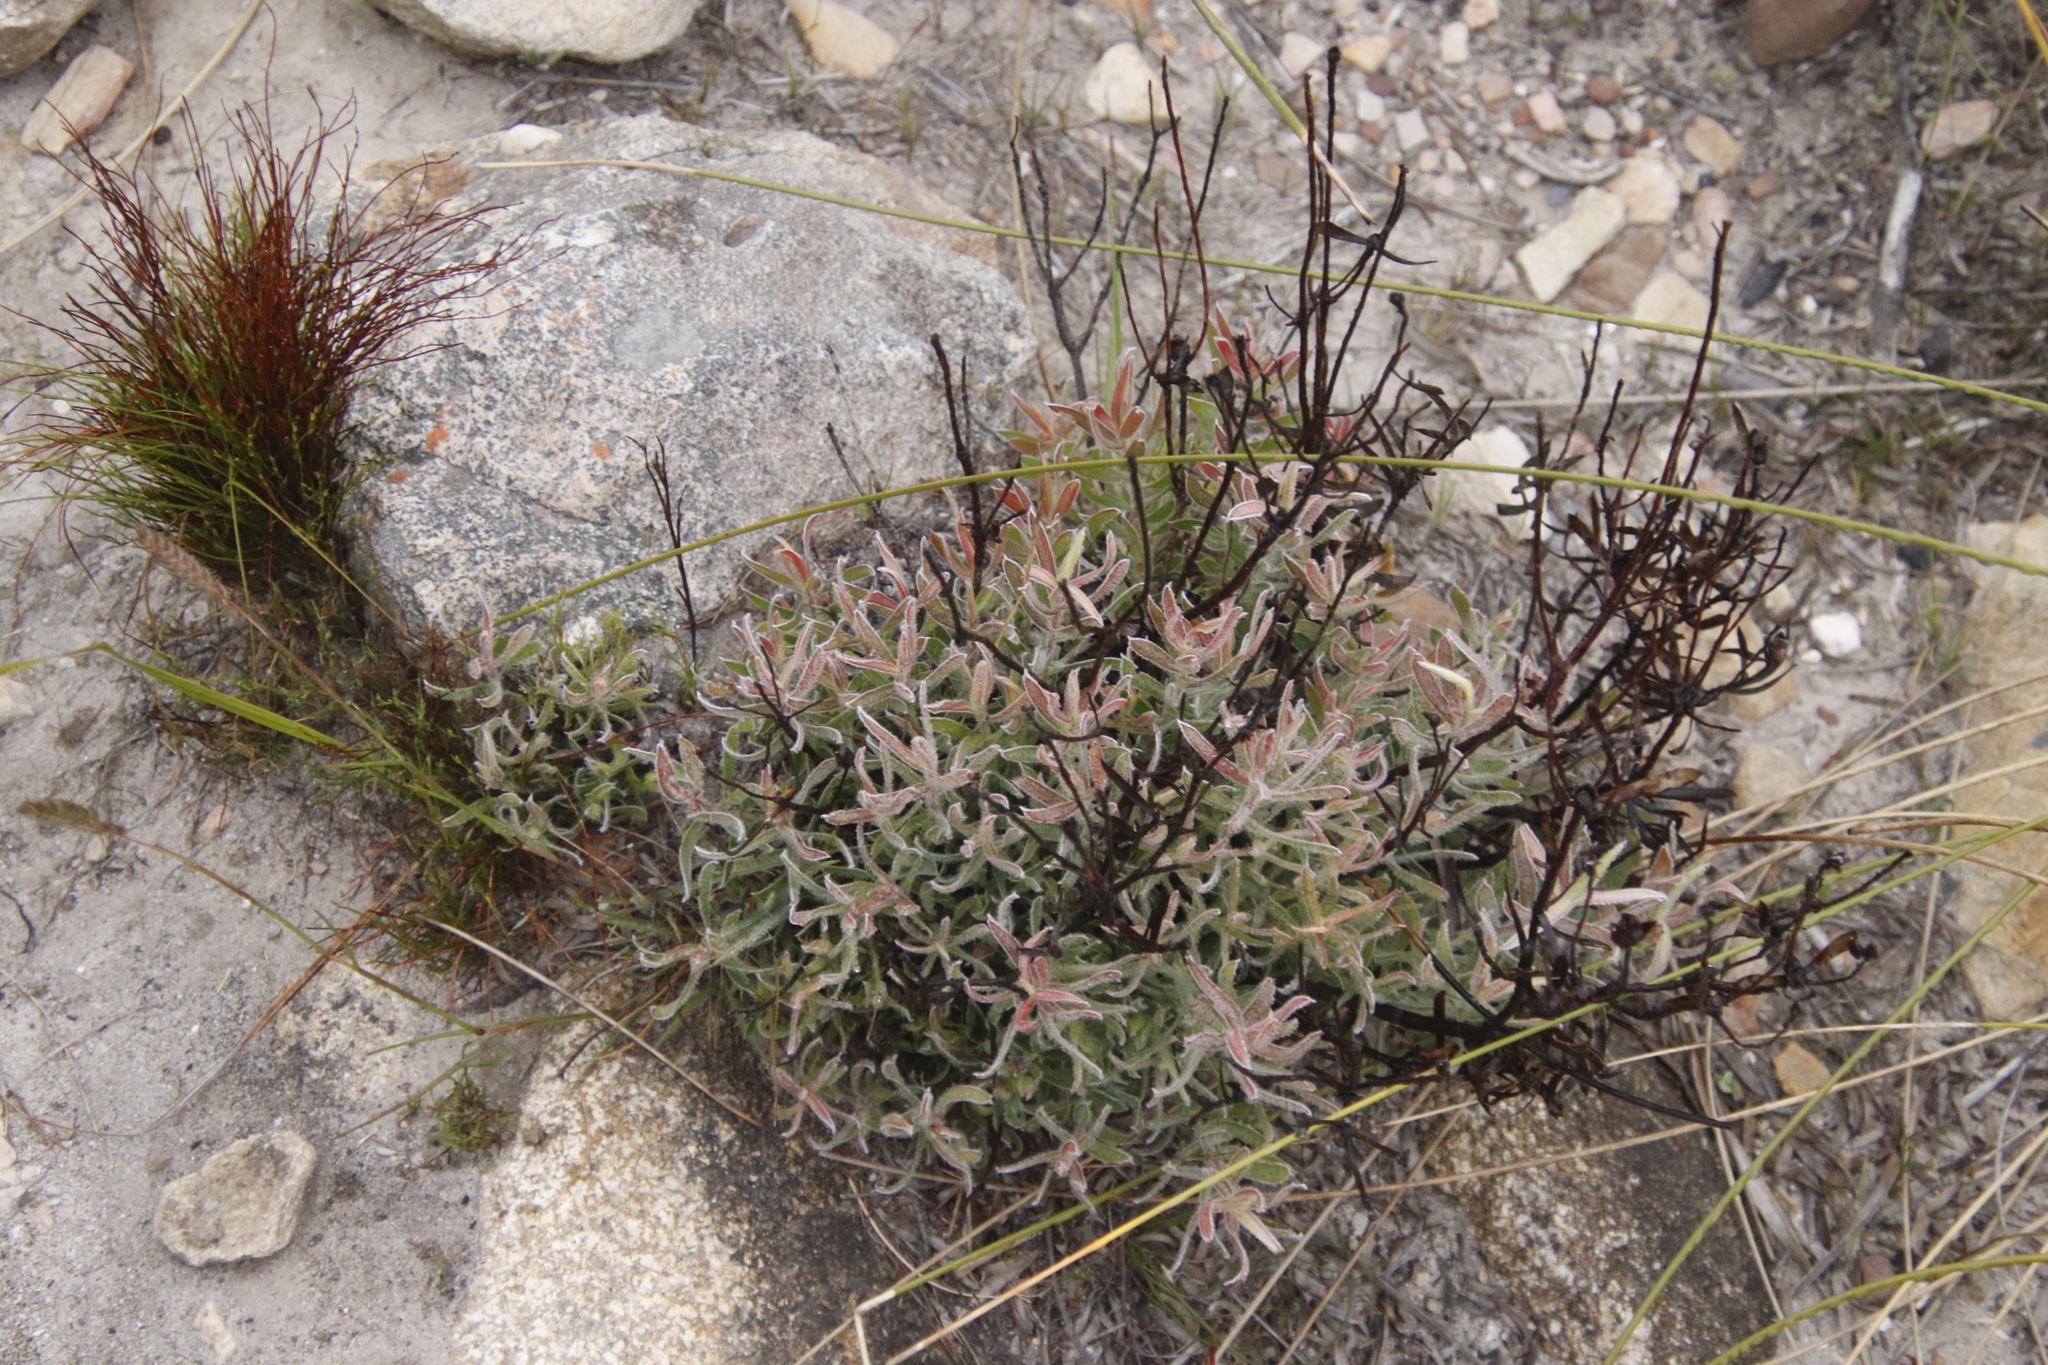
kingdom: Plantae
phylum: Tracheophyta
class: Magnoliopsida
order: Proteales
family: Proteaceae
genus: Leucadendron
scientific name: Leucadendron spissifolium
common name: Spear-leaf conebush
